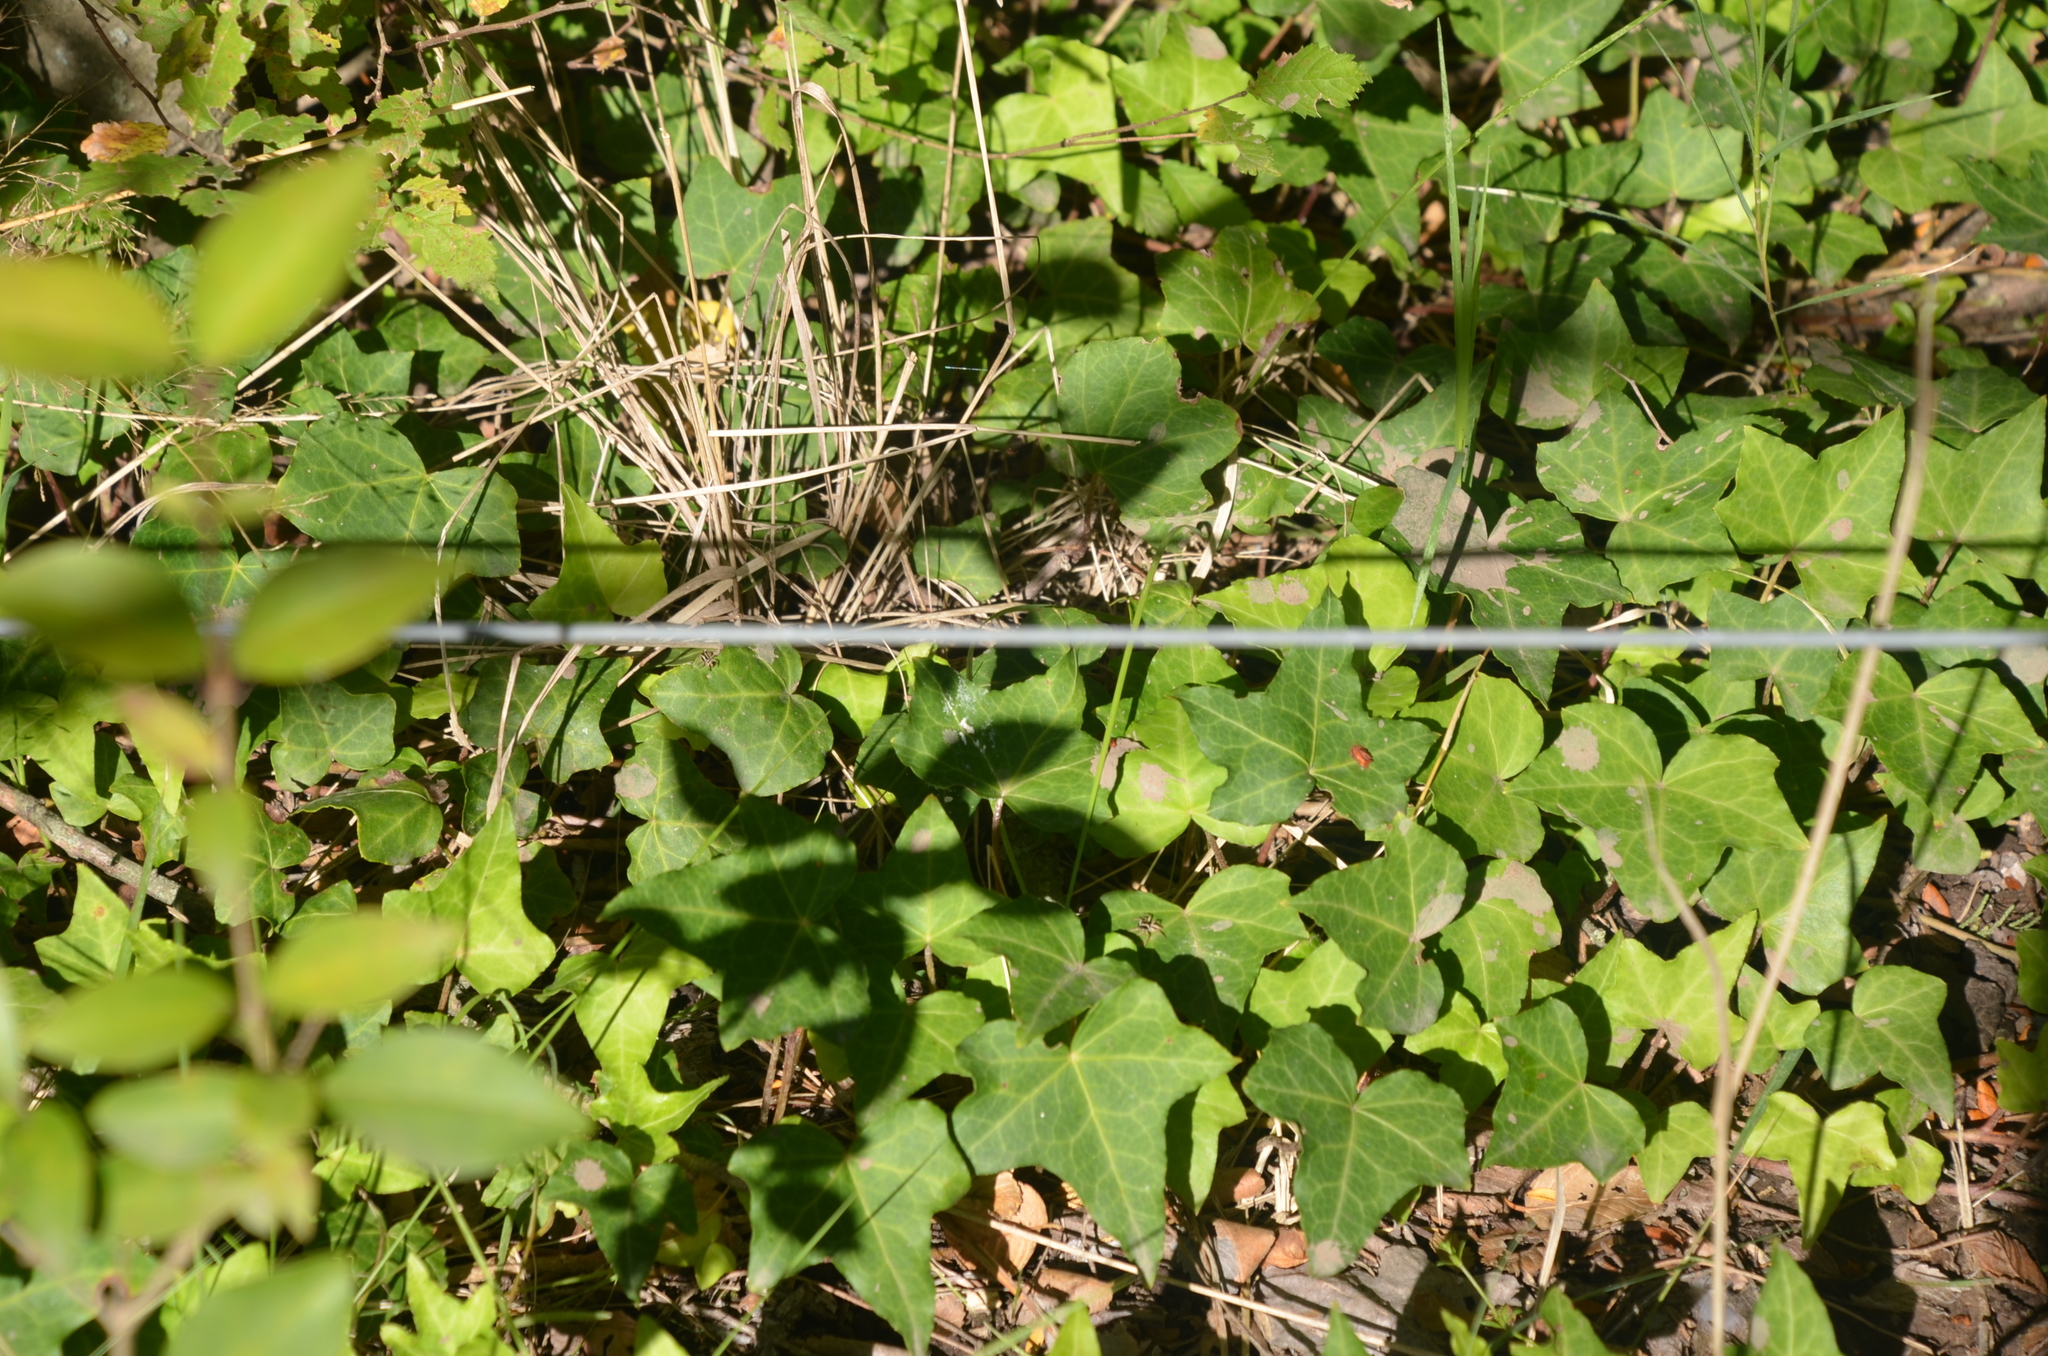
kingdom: Plantae
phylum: Tracheophyta
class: Magnoliopsida
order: Apiales
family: Araliaceae
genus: Hedera
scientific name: Hedera helix
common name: Ivy
